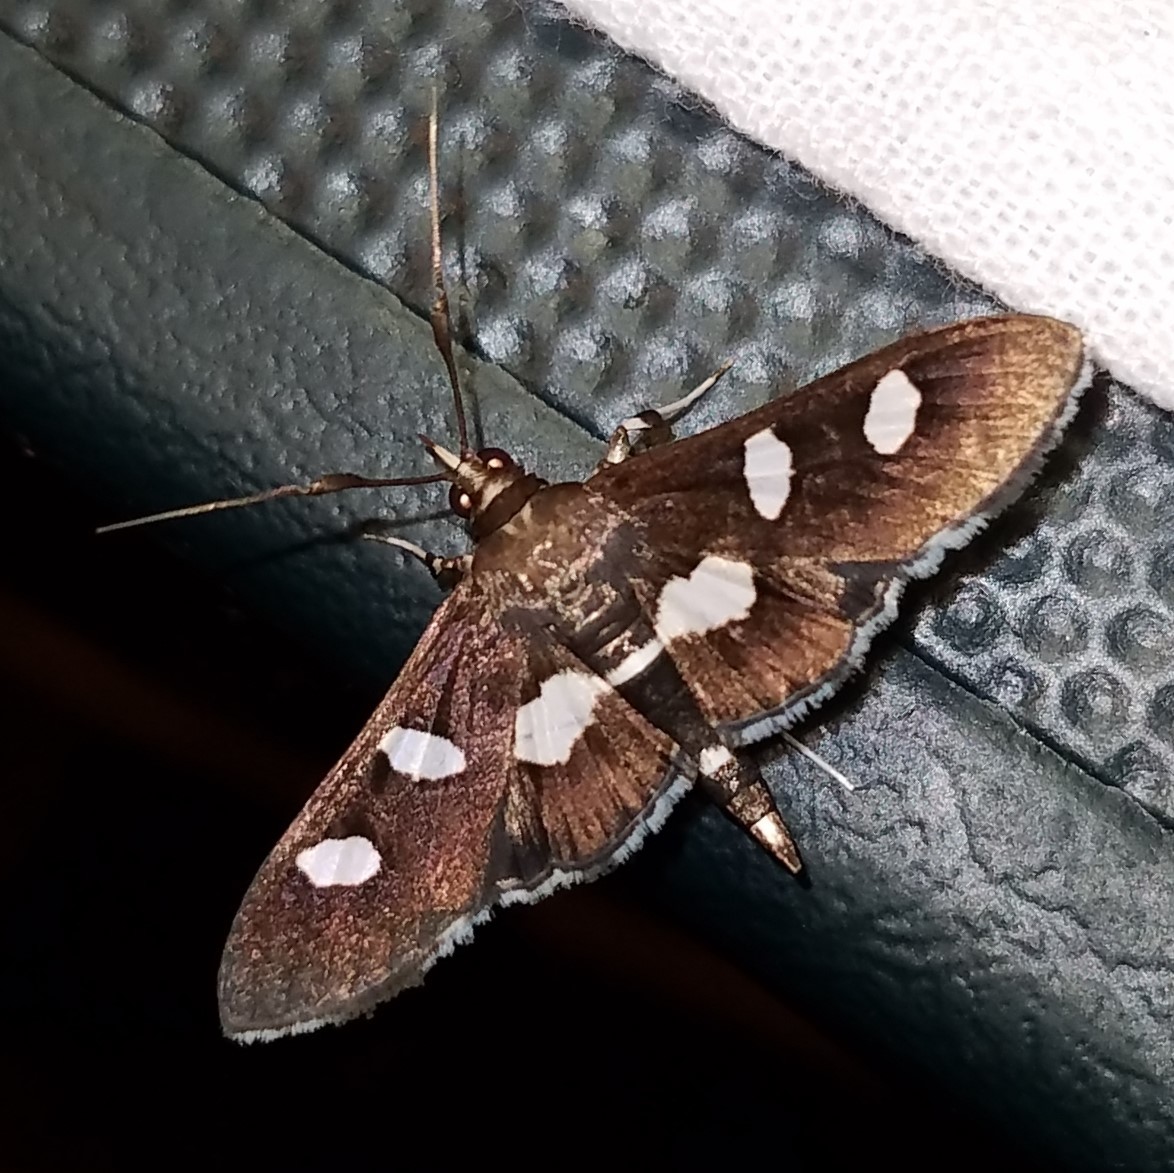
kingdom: Animalia
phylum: Arthropoda
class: Insecta
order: Lepidoptera
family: Crambidae
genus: Desmia
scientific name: Desmia
